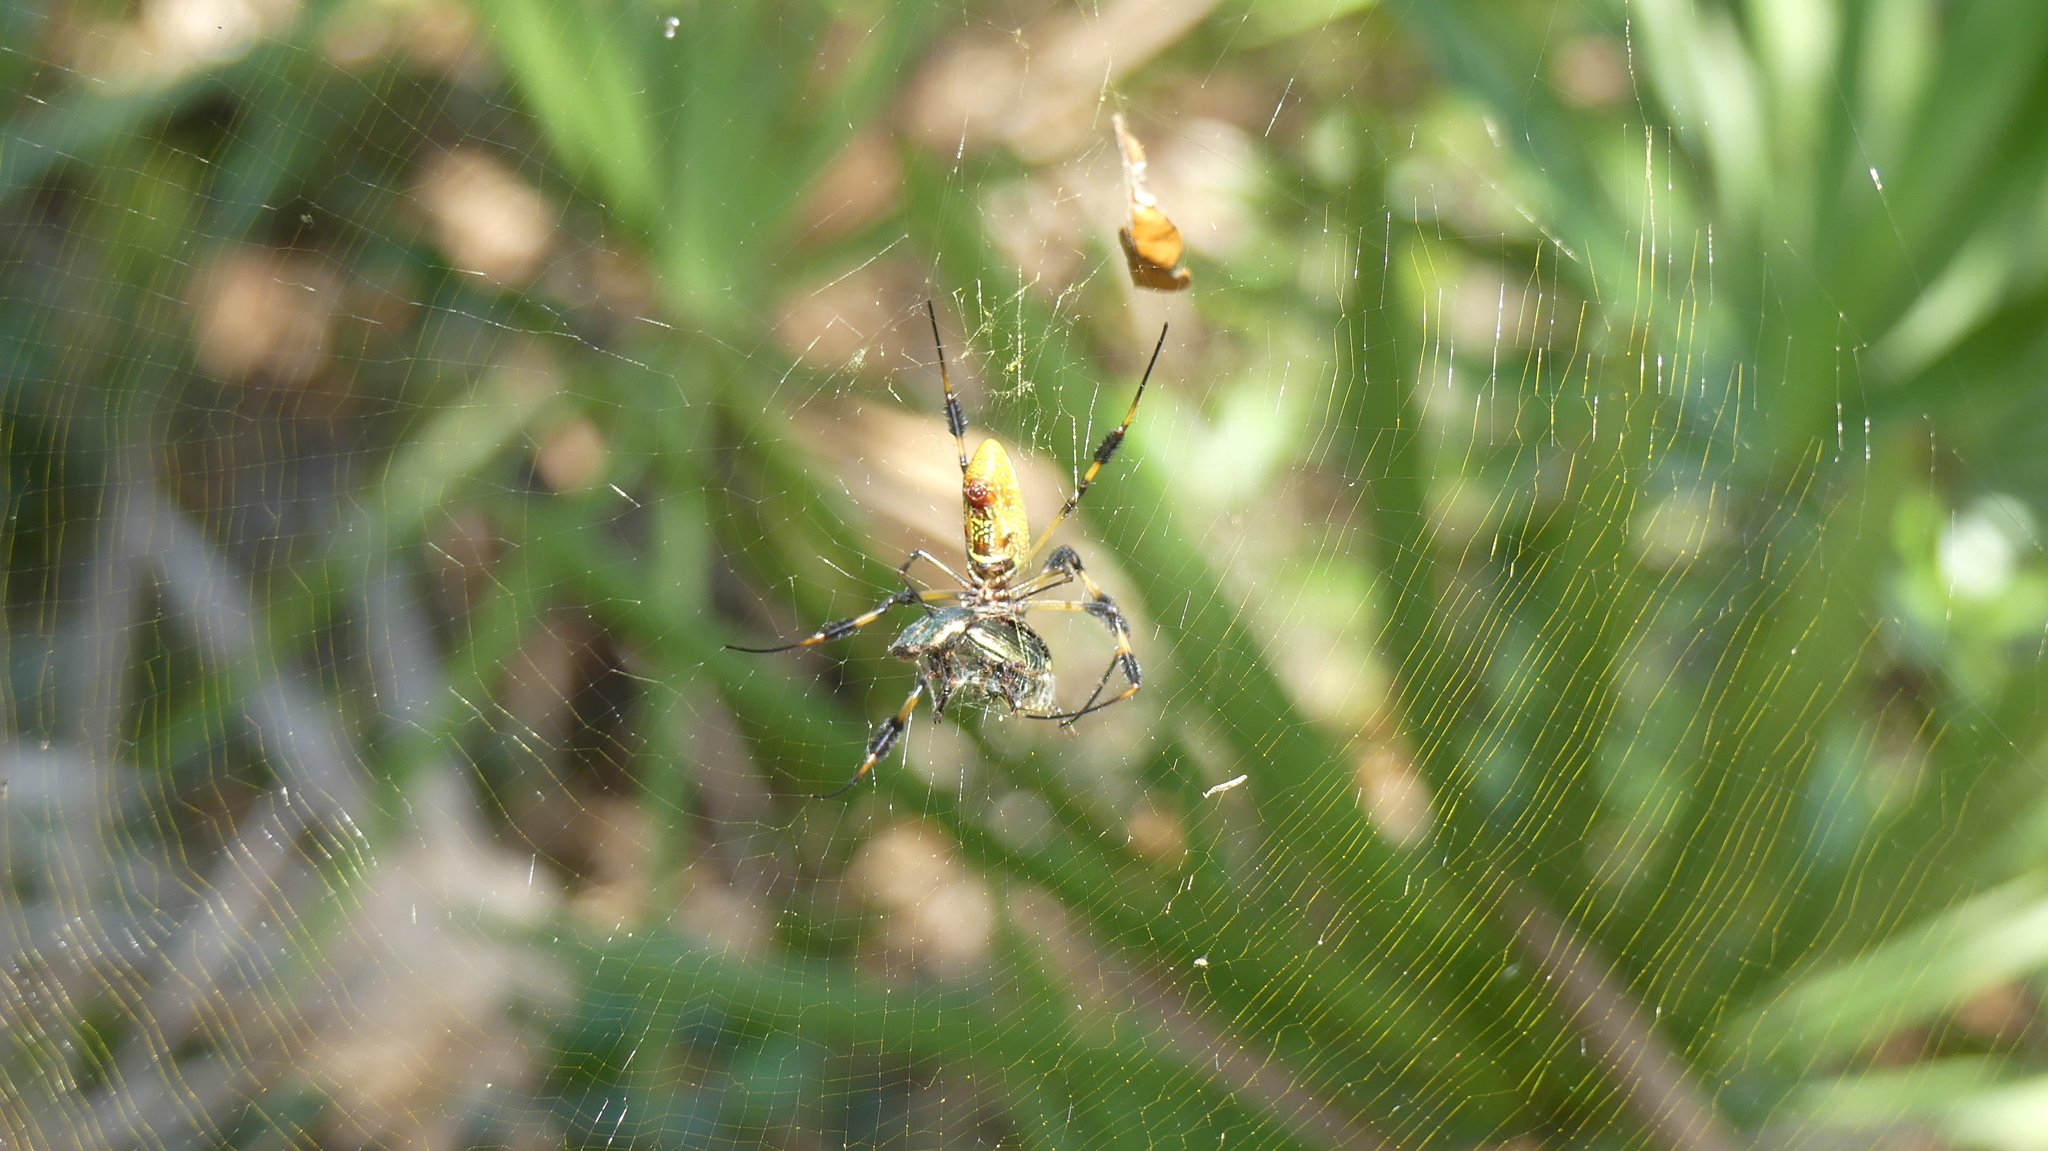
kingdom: Animalia
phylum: Arthropoda
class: Arachnida
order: Araneae
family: Araneidae
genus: Trichonephila
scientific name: Trichonephila clavipes
